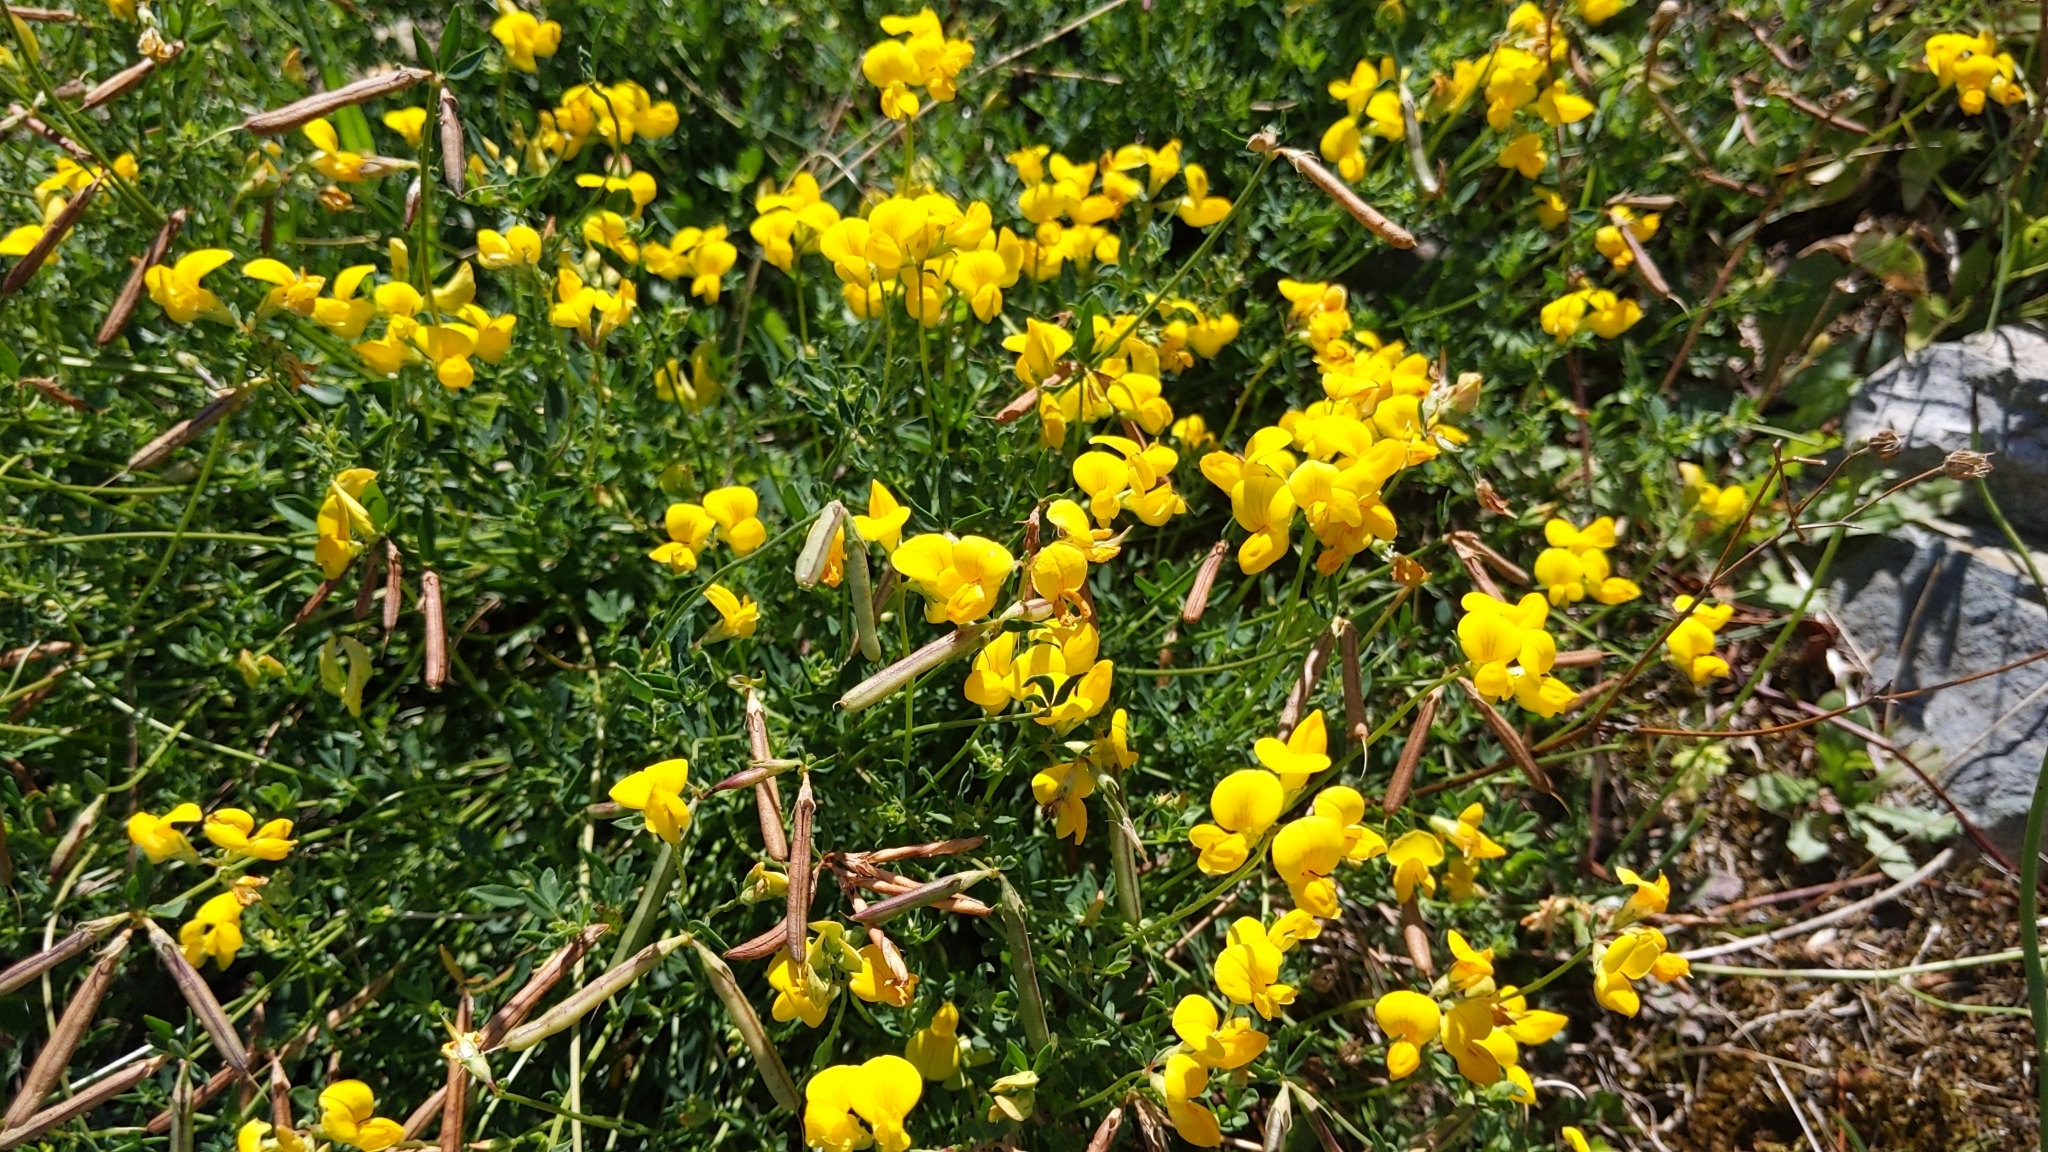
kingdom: Plantae
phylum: Tracheophyta
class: Magnoliopsida
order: Fabales
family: Fabaceae
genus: Lotus
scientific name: Lotus corniculatus
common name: Common bird's-foot-trefoil
